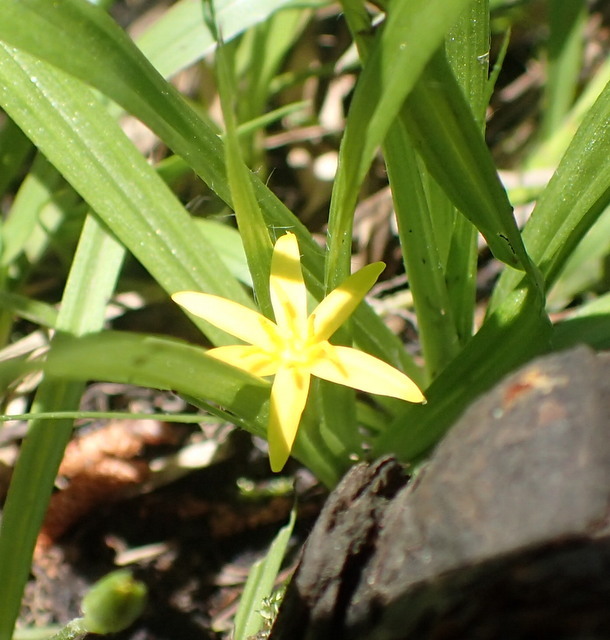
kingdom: Plantae
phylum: Tracheophyta
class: Liliopsida
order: Asparagales
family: Hypoxidaceae
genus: Hypoxis
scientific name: Hypoxis curtissii
